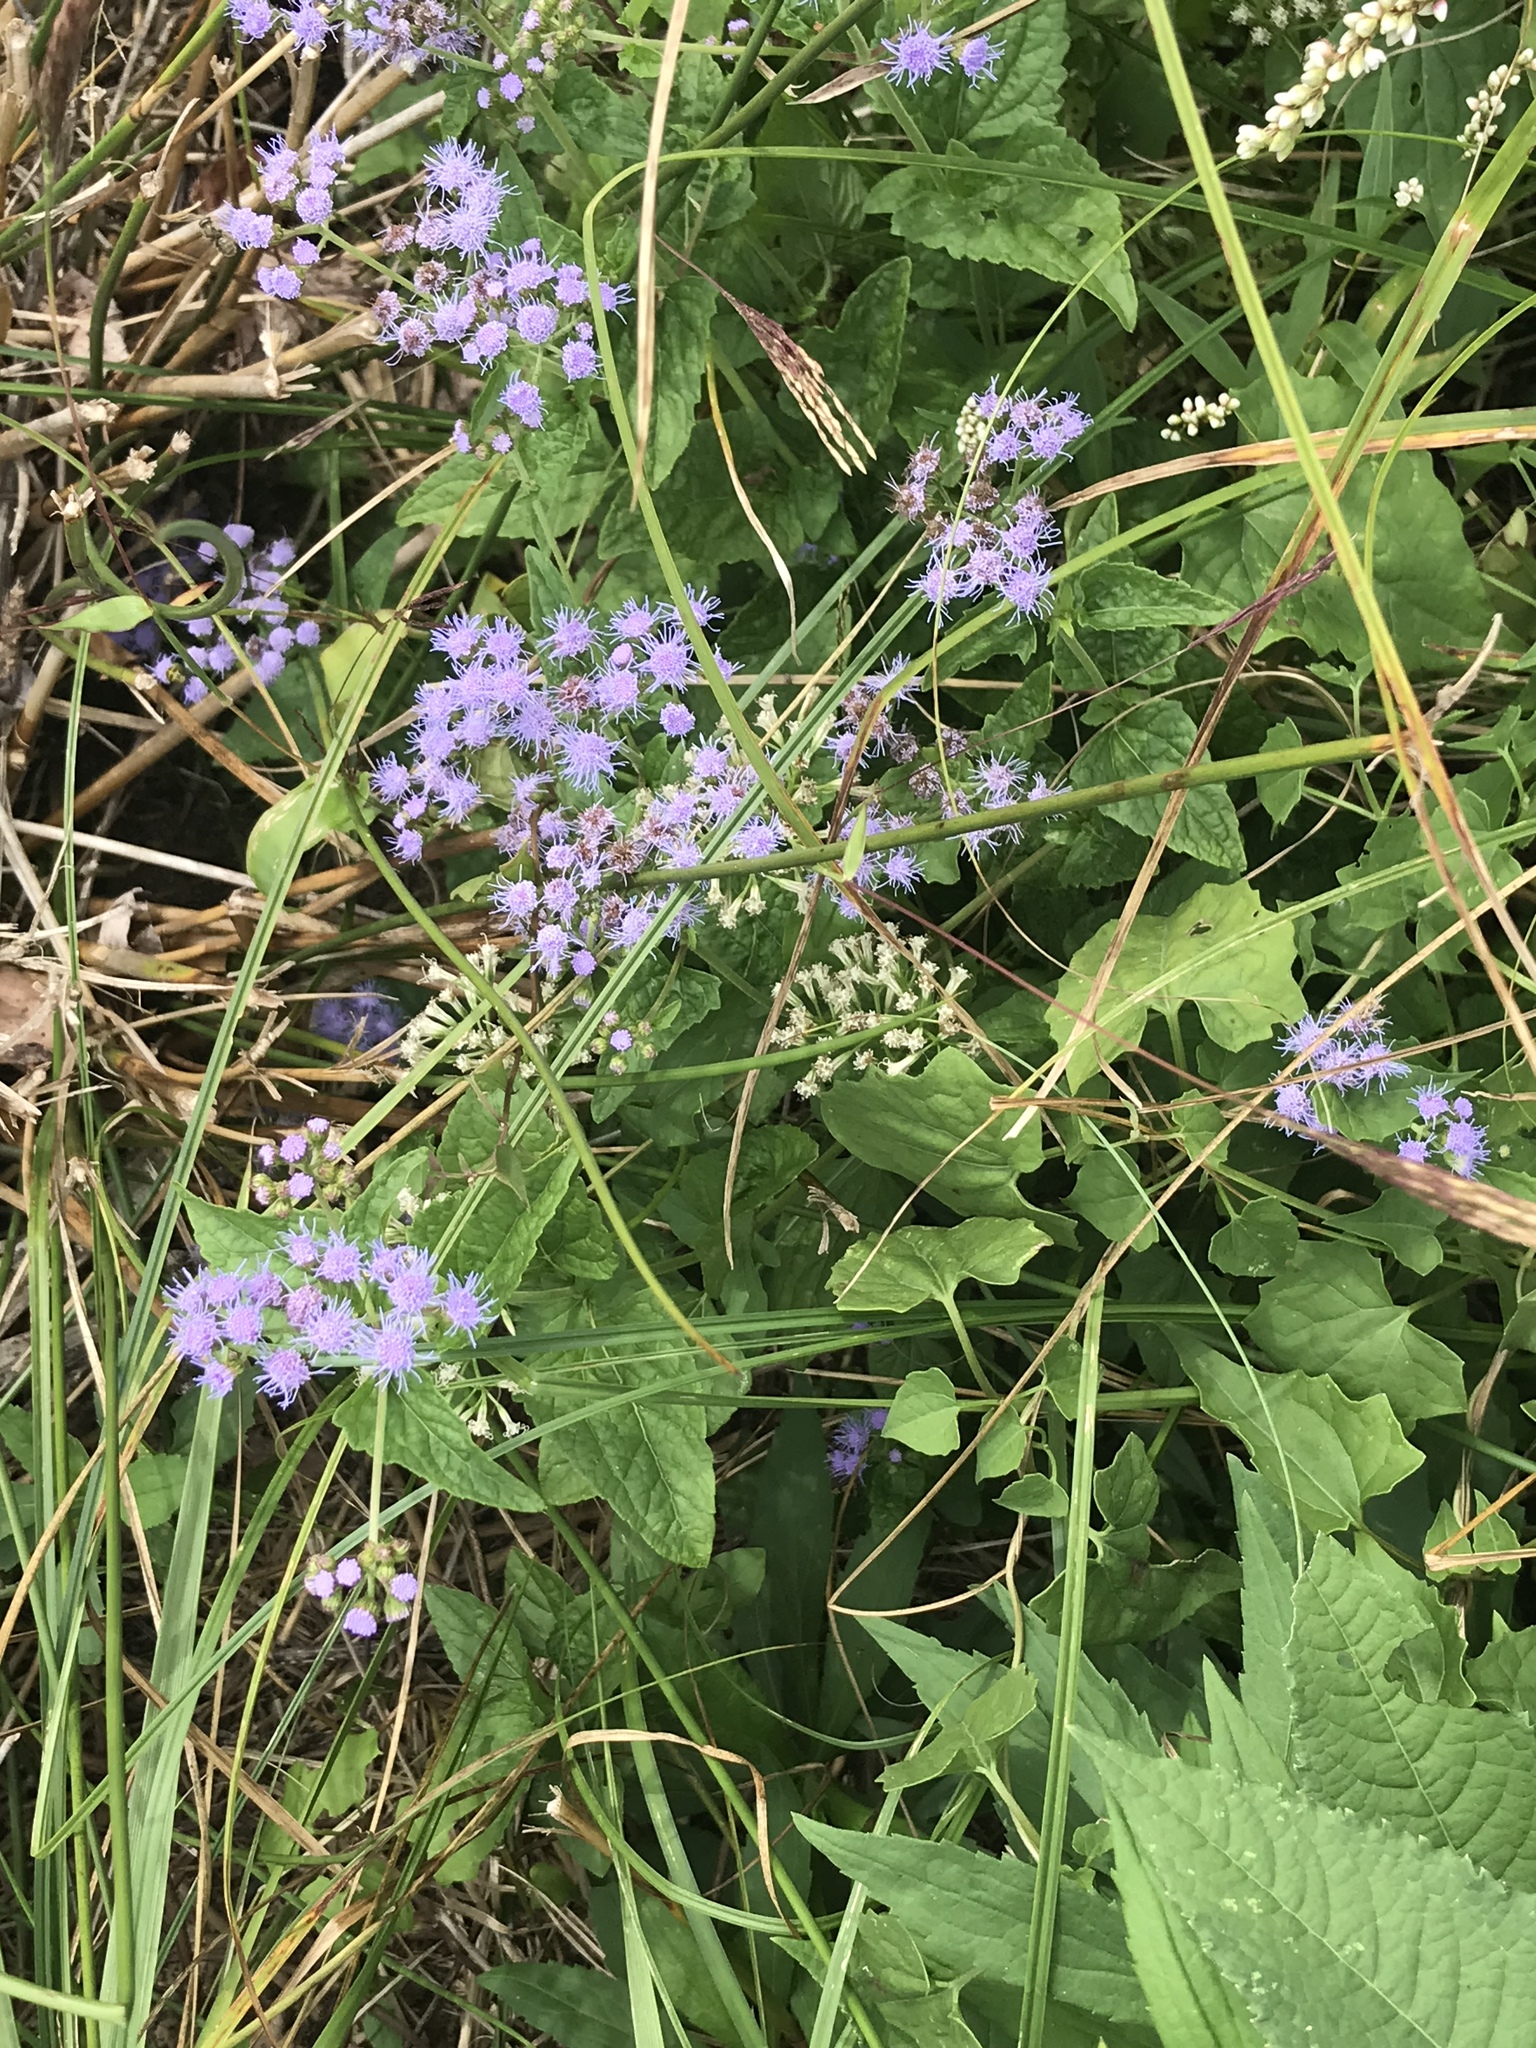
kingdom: Plantae
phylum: Tracheophyta
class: Magnoliopsida
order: Asterales
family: Asteraceae
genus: Conoclinium
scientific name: Conoclinium coelestinum
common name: Blue mistflower
